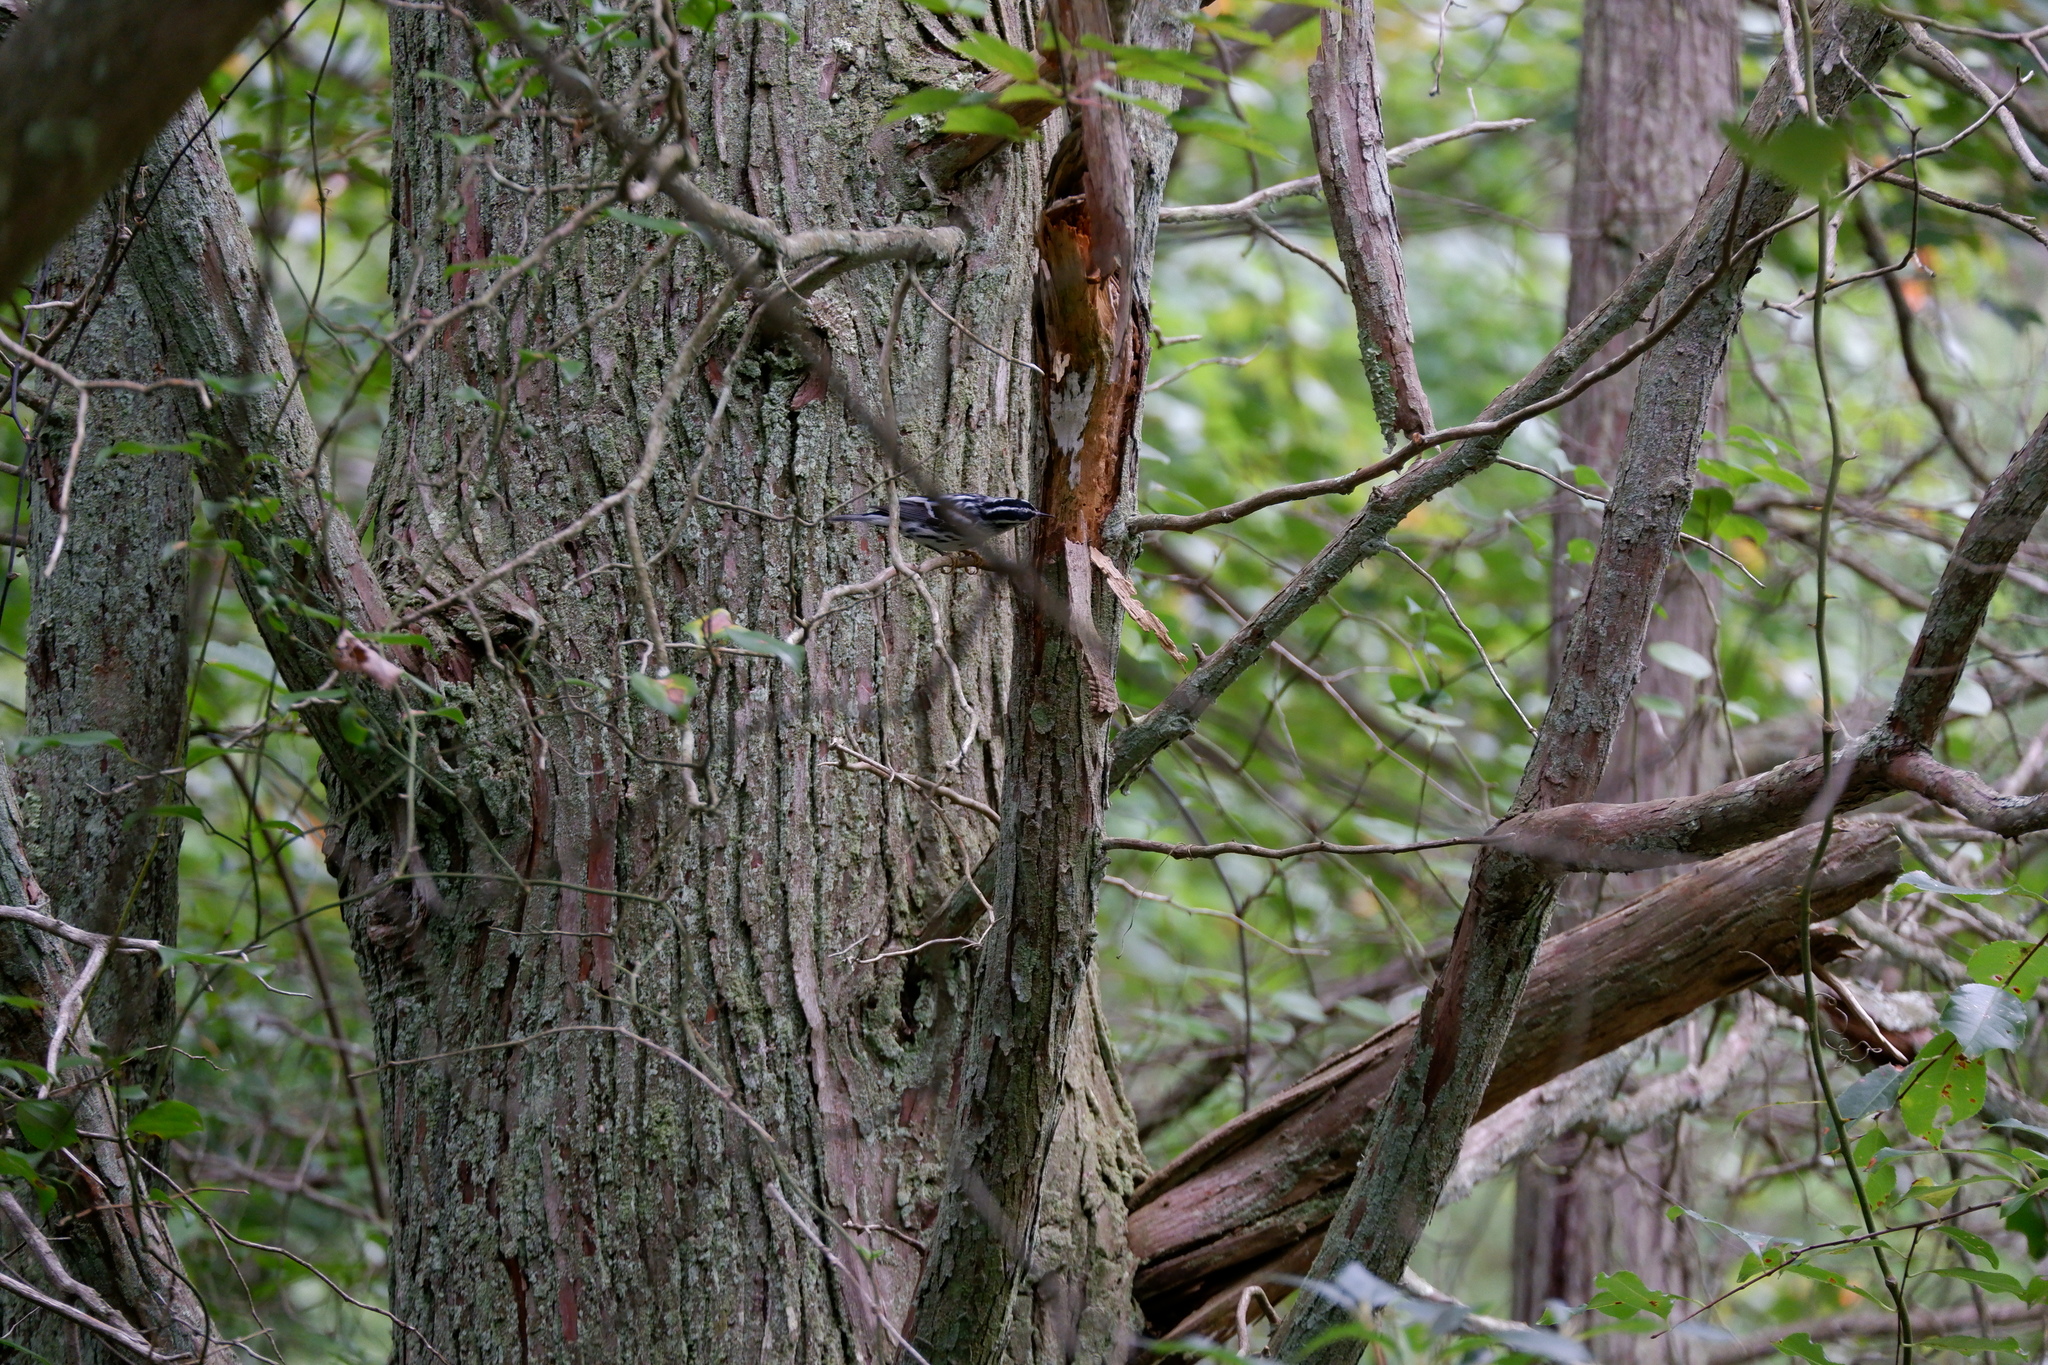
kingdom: Animalia
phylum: Chordata
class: Aves
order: Passeriformes
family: Parulidae
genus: Mniotilta
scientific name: Mniotilta varia
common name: Black-and-white warbler
